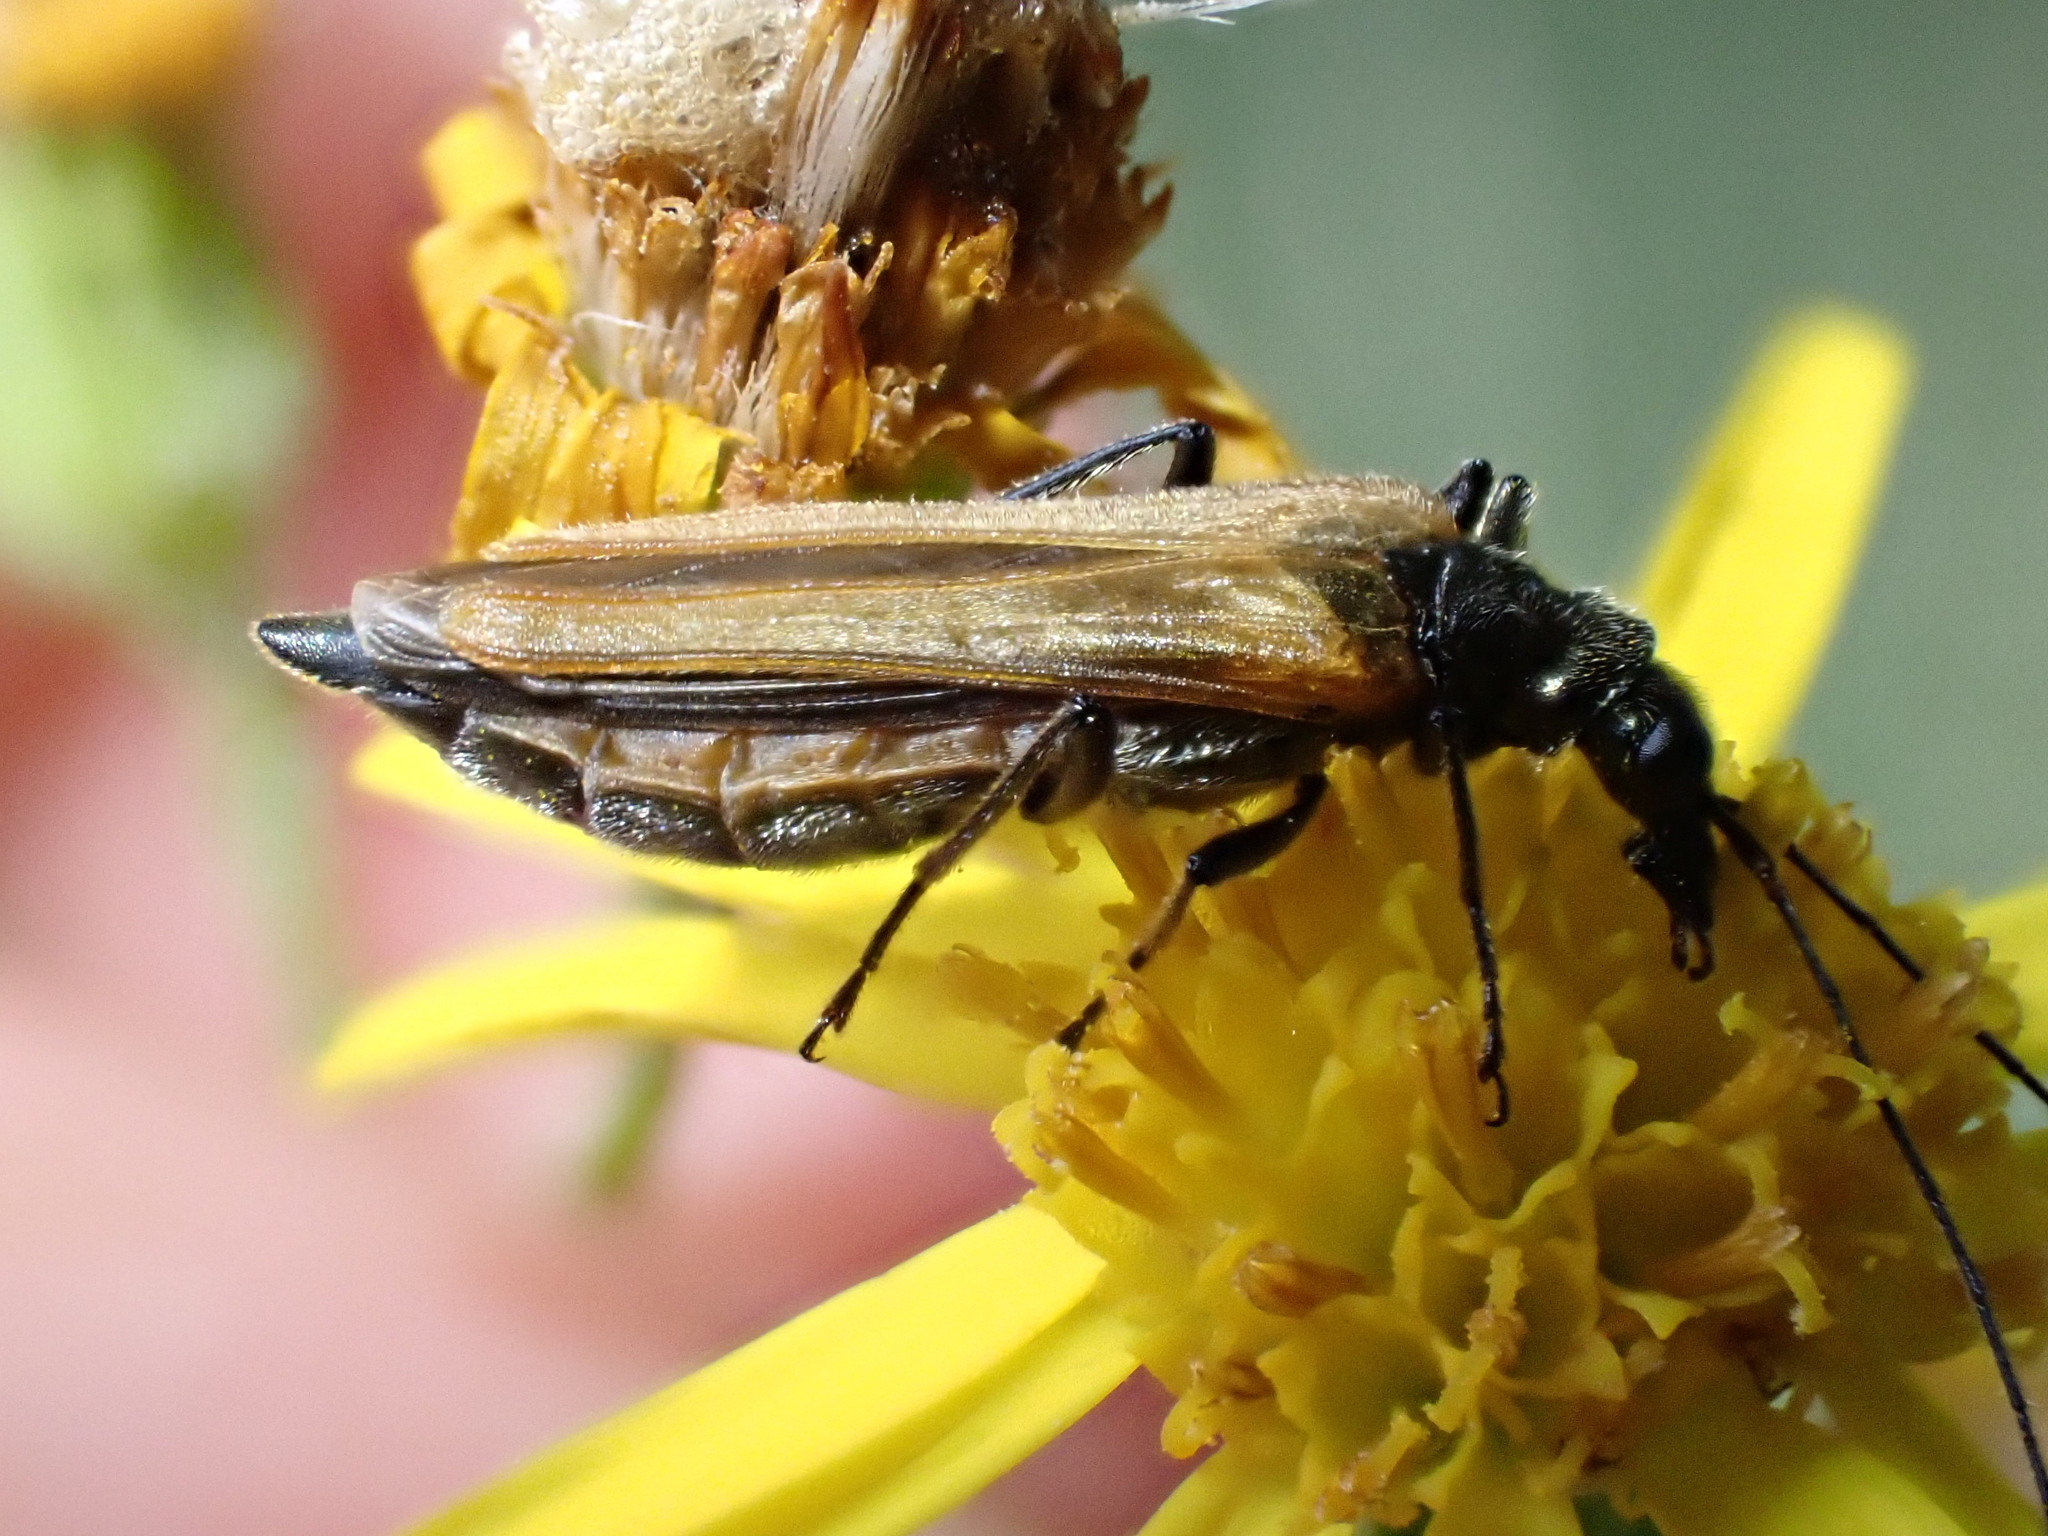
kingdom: Animalia
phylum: Arthropoda
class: Insecta
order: Coleoptera
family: Oedemeridae
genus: Oedemera
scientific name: Oedemera femorata
